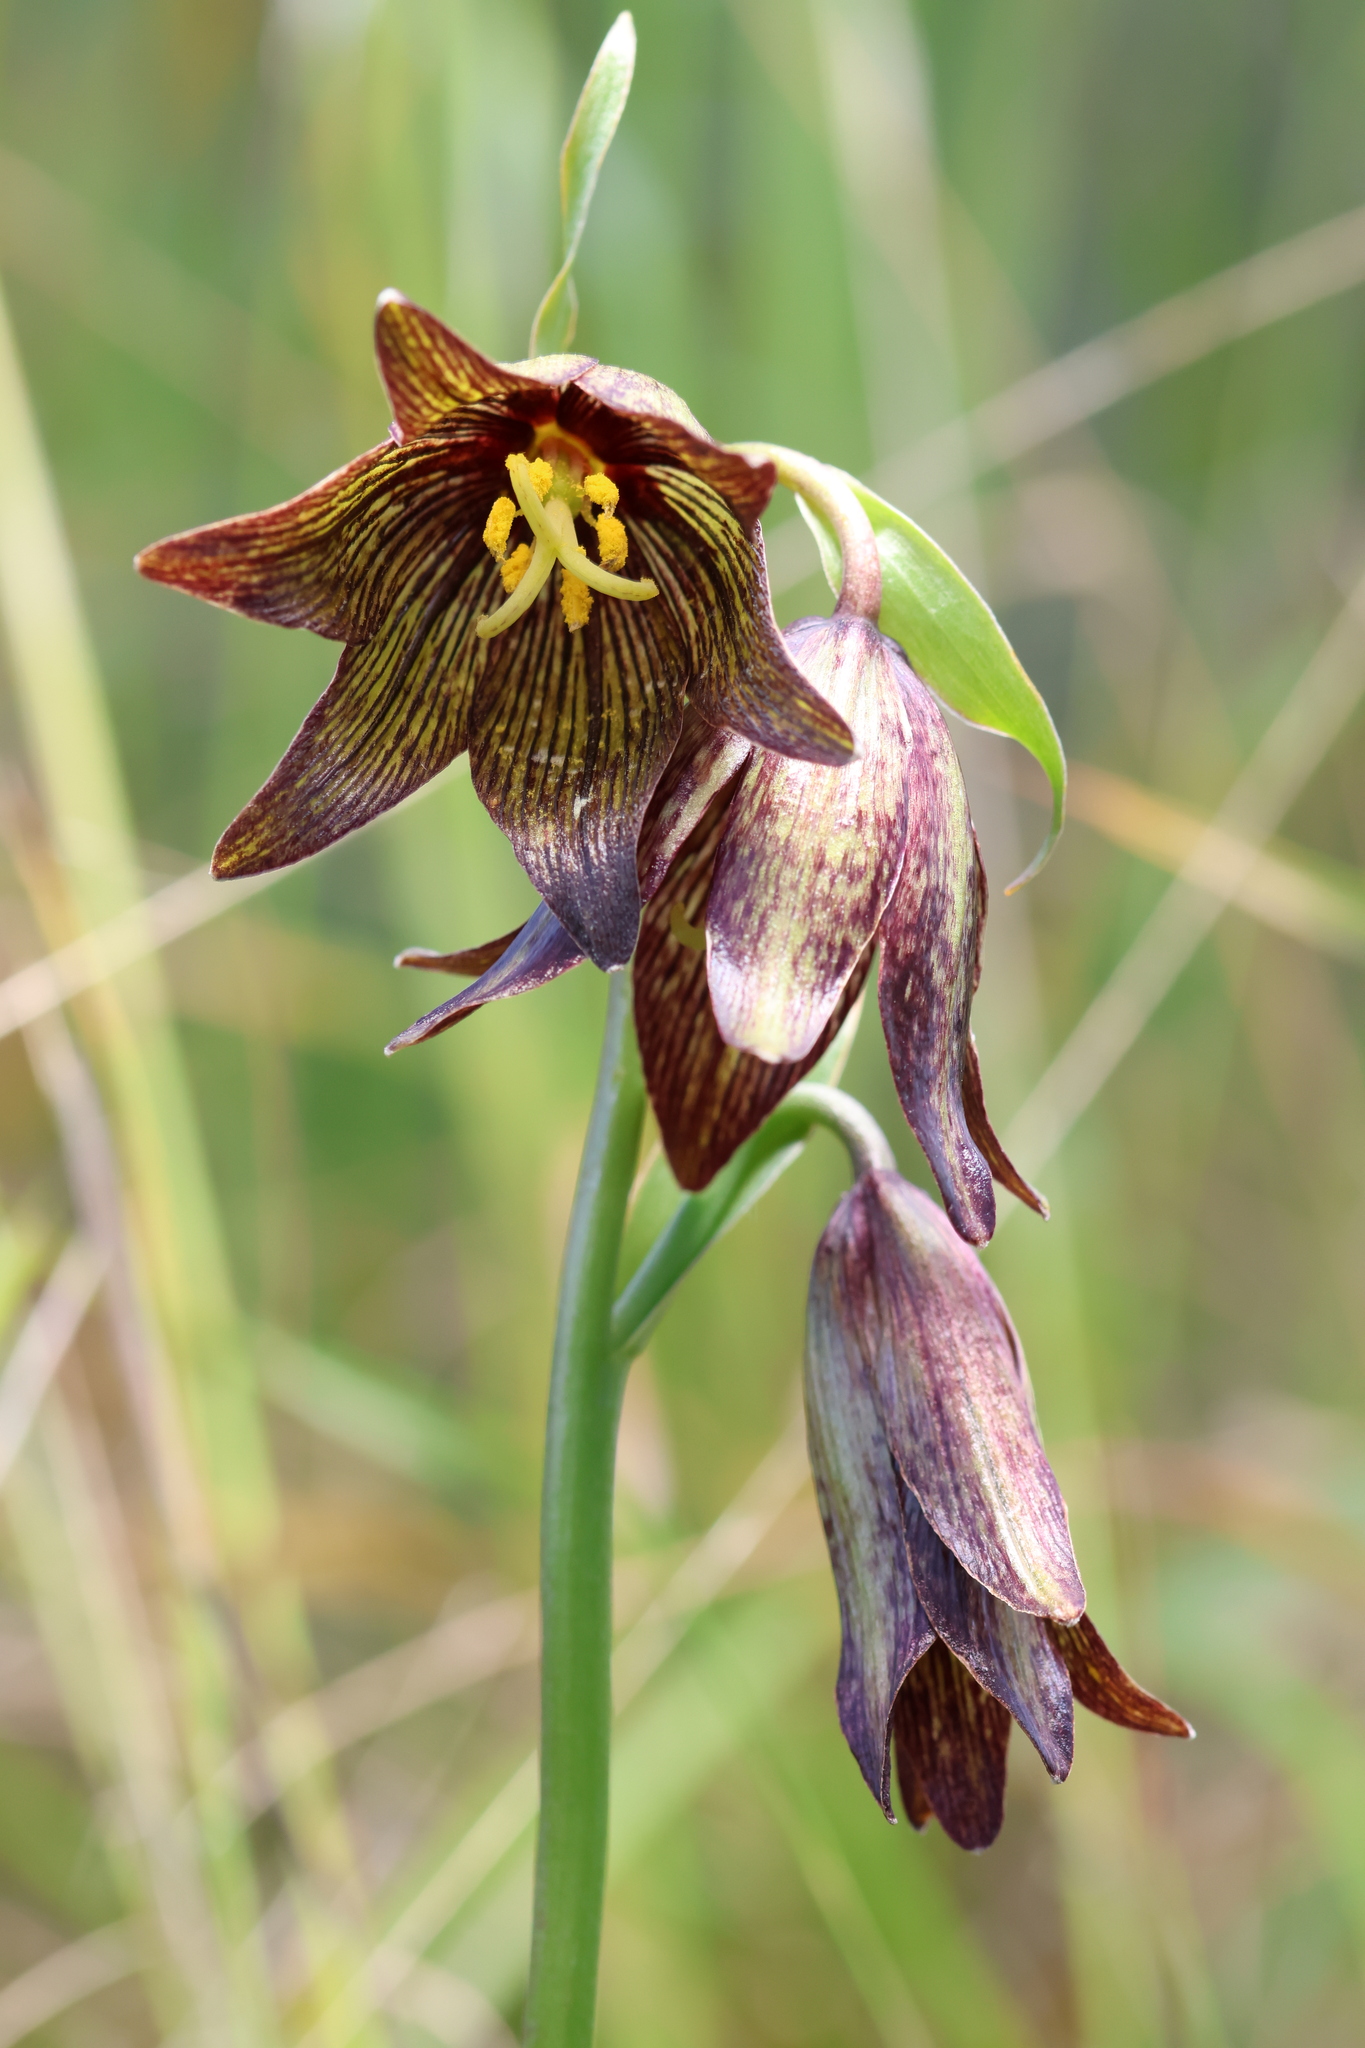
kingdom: Plantae
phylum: Tracheophyta
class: Liliopsida
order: Liliales
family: Liliaceae
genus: Fritillaria
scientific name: Fritillaria biflora
